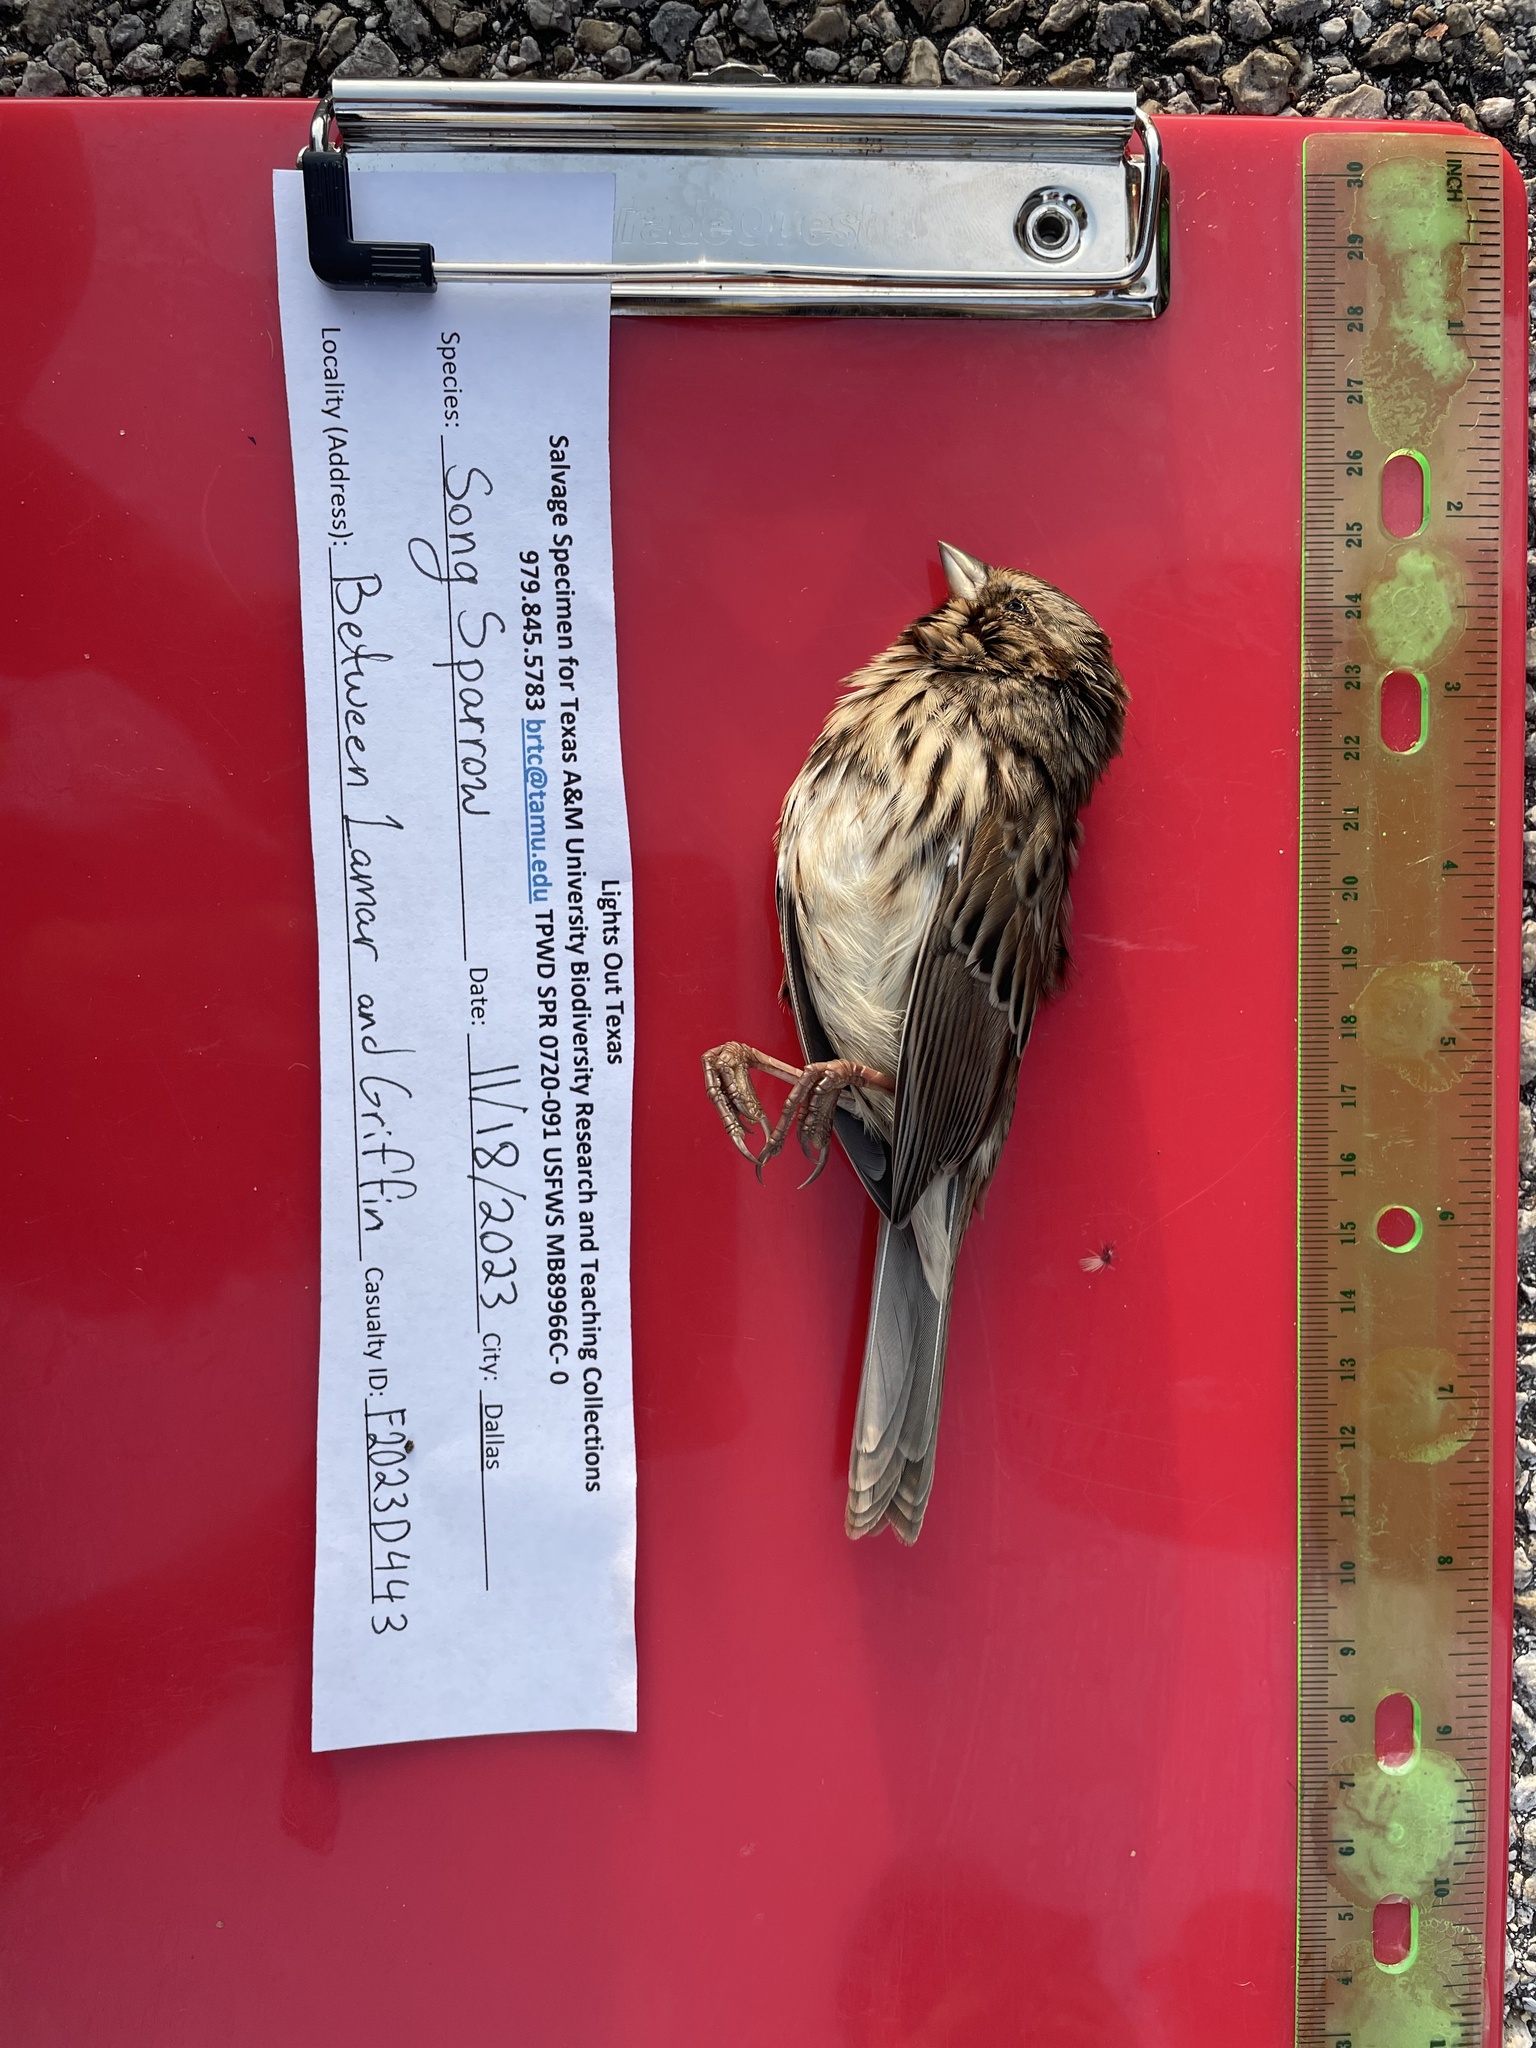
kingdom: Animalia
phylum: Chordata
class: Aves
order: Passeriformes
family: Passerellidae
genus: Melospiza
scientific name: Melospiza melodia
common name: Song sparrow
